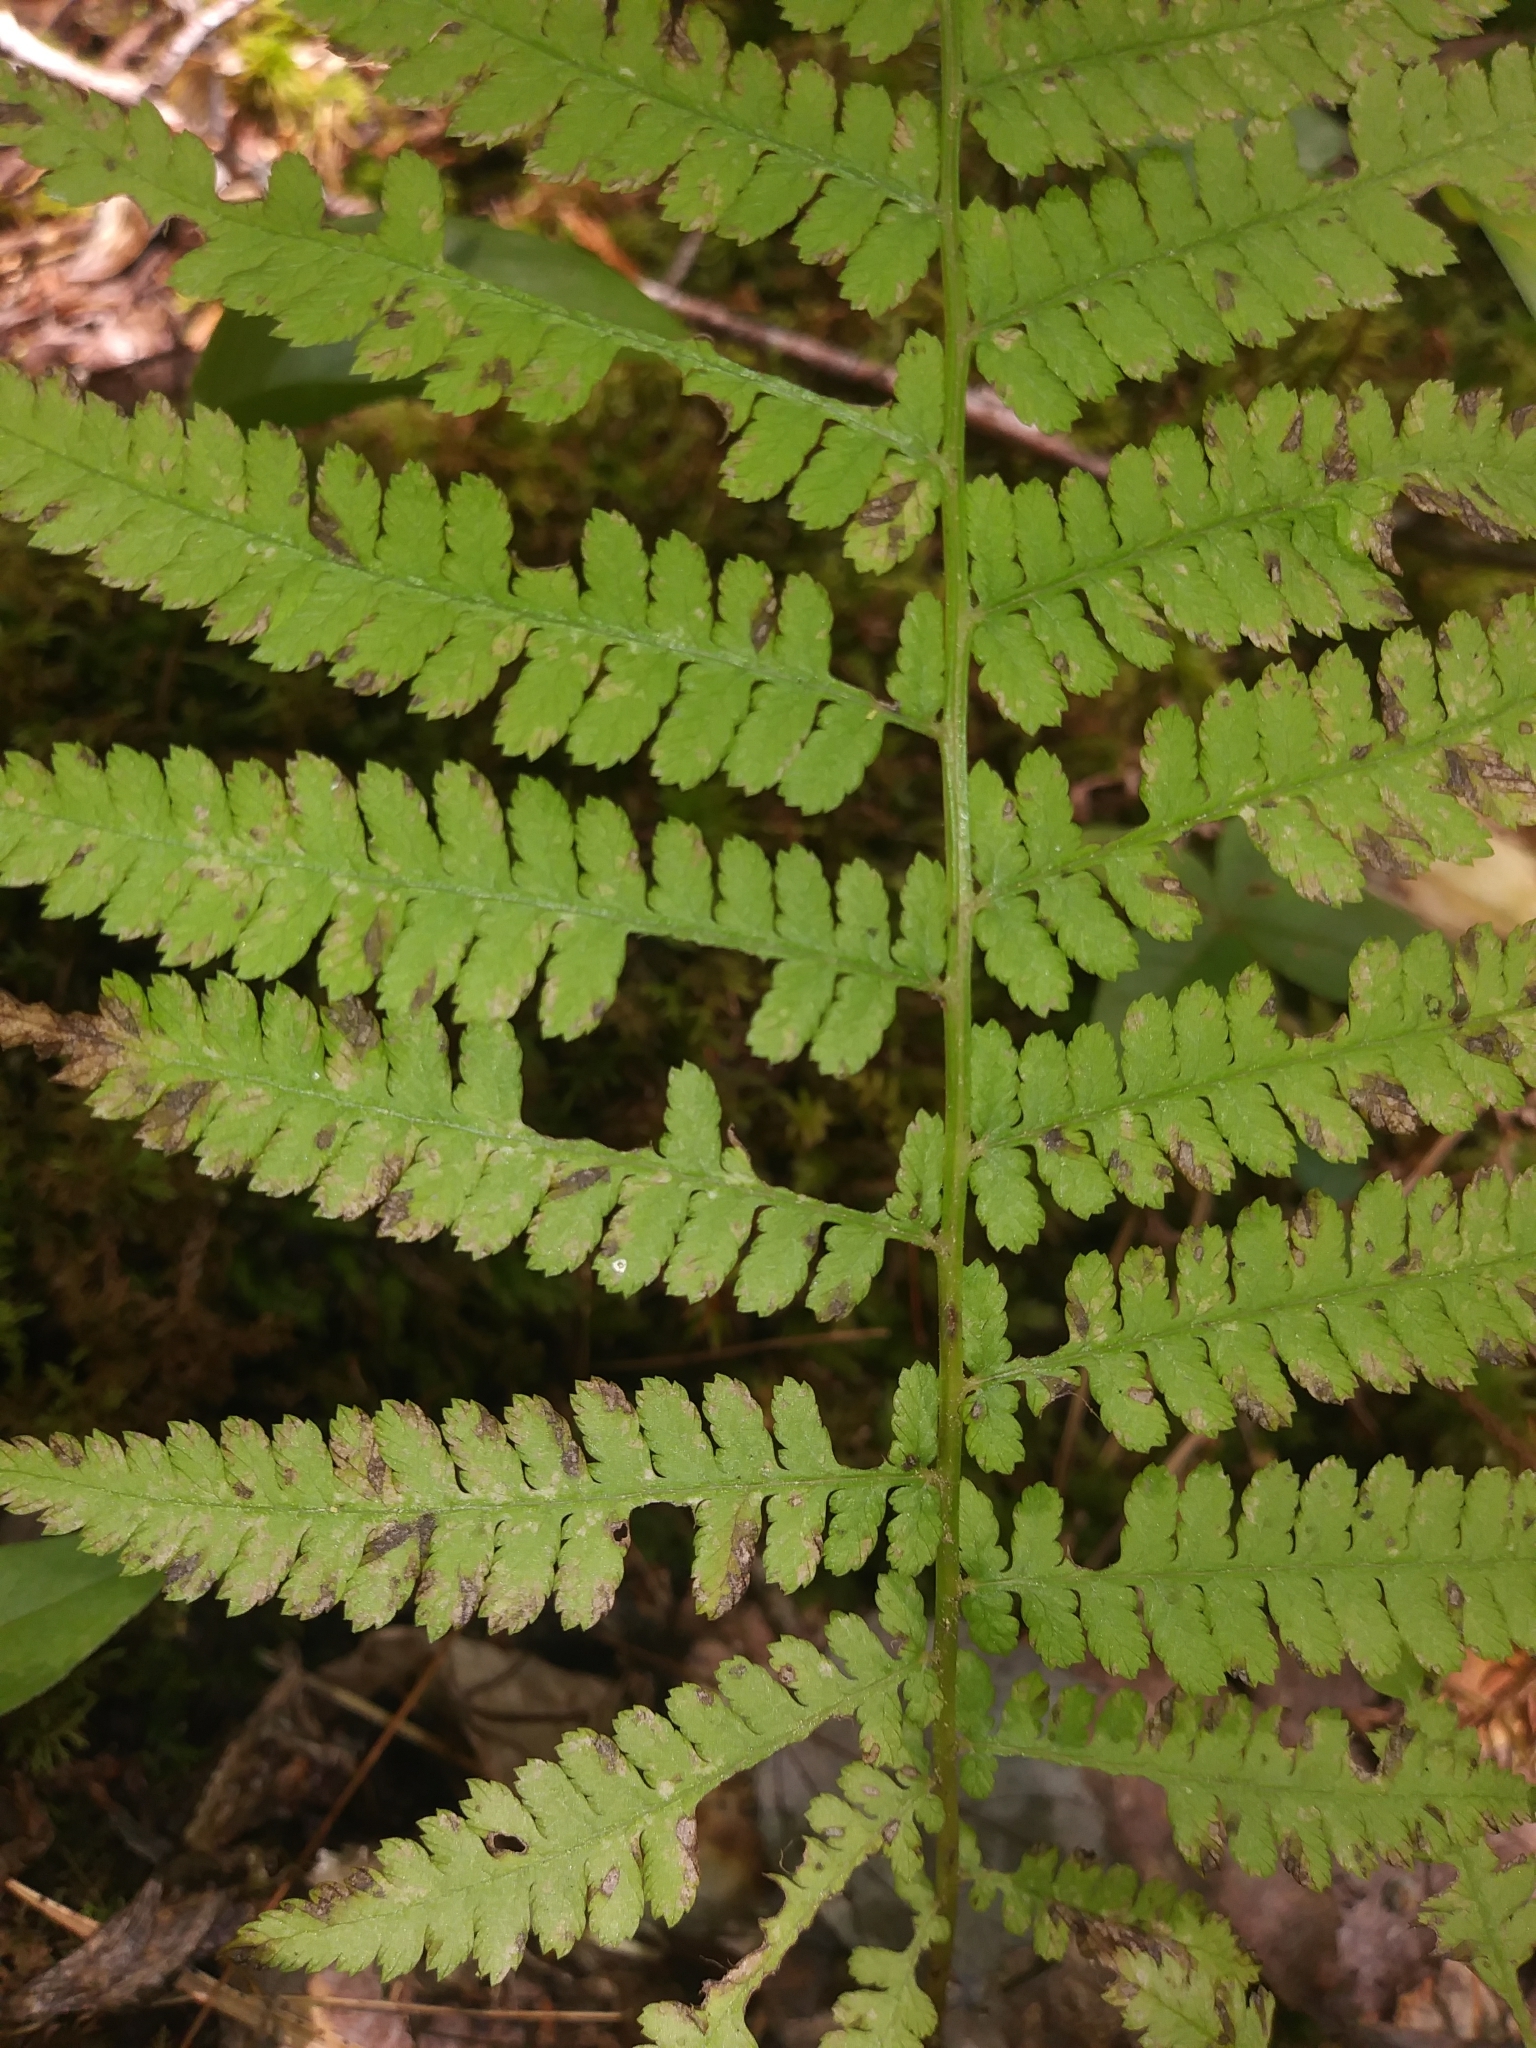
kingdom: Plantae
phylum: Tracheophyta
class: Polypodiopsida
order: Polypodiales
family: Athyriaceae
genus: Athyrium
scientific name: Athyrium angustum
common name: Northern lady fern
